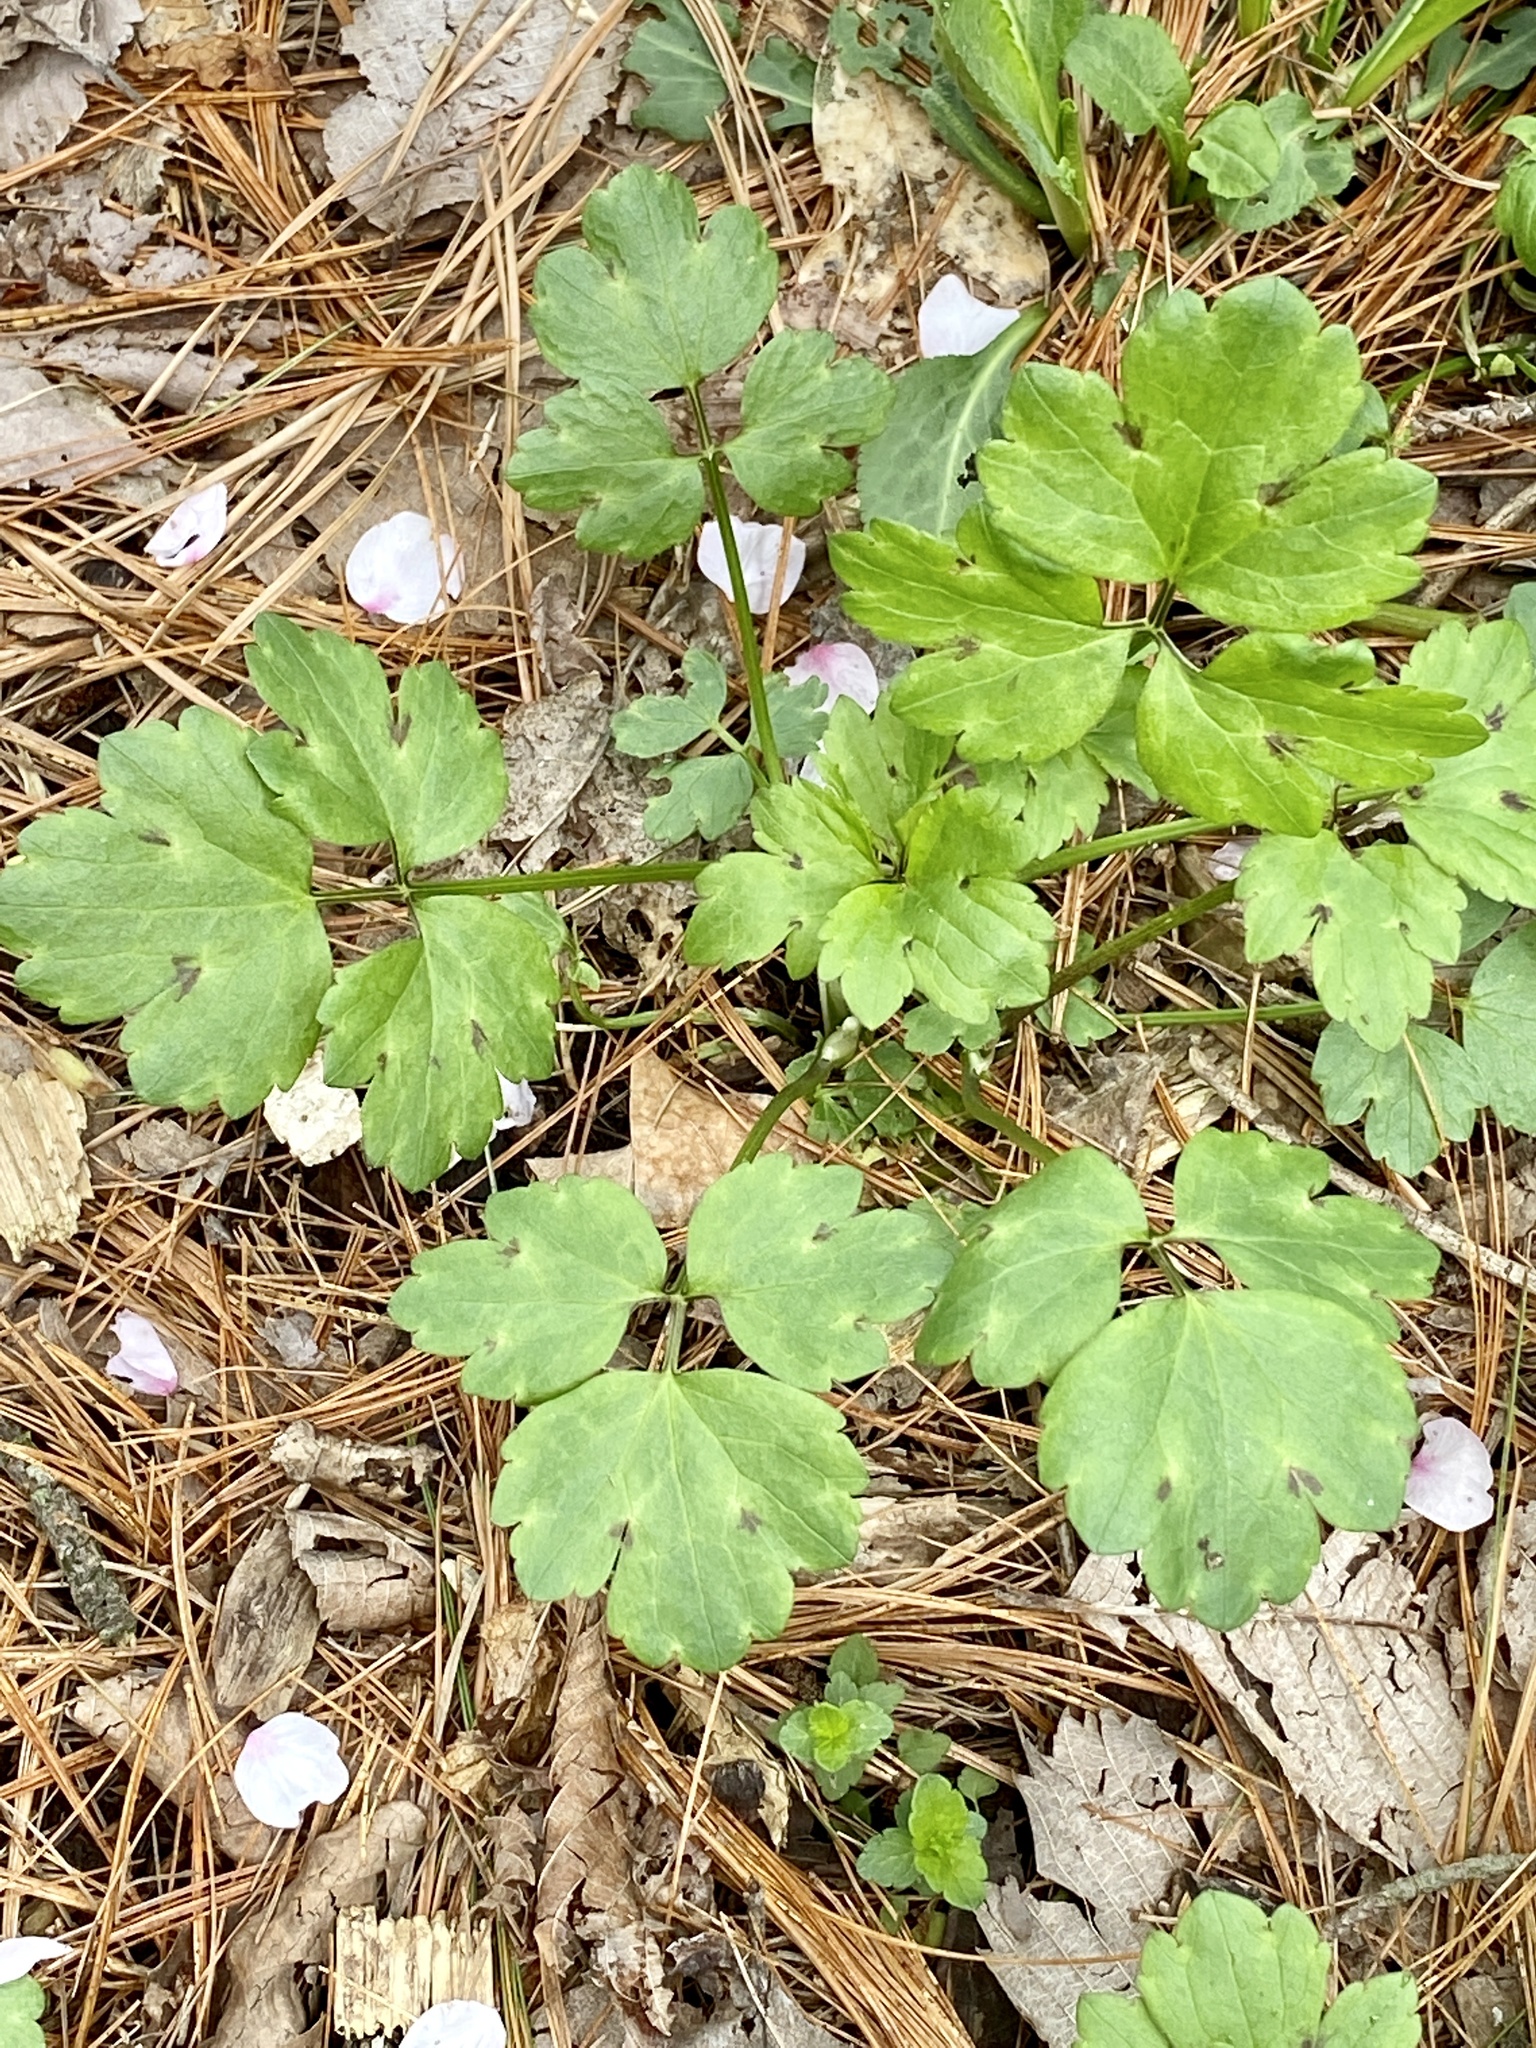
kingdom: Plantae
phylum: Tracheophyta
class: Magnoliopsida
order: Ranunculales
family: Ranunculaceae
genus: Ranunculus
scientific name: Ranunculus repens
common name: Creeping buttercup
